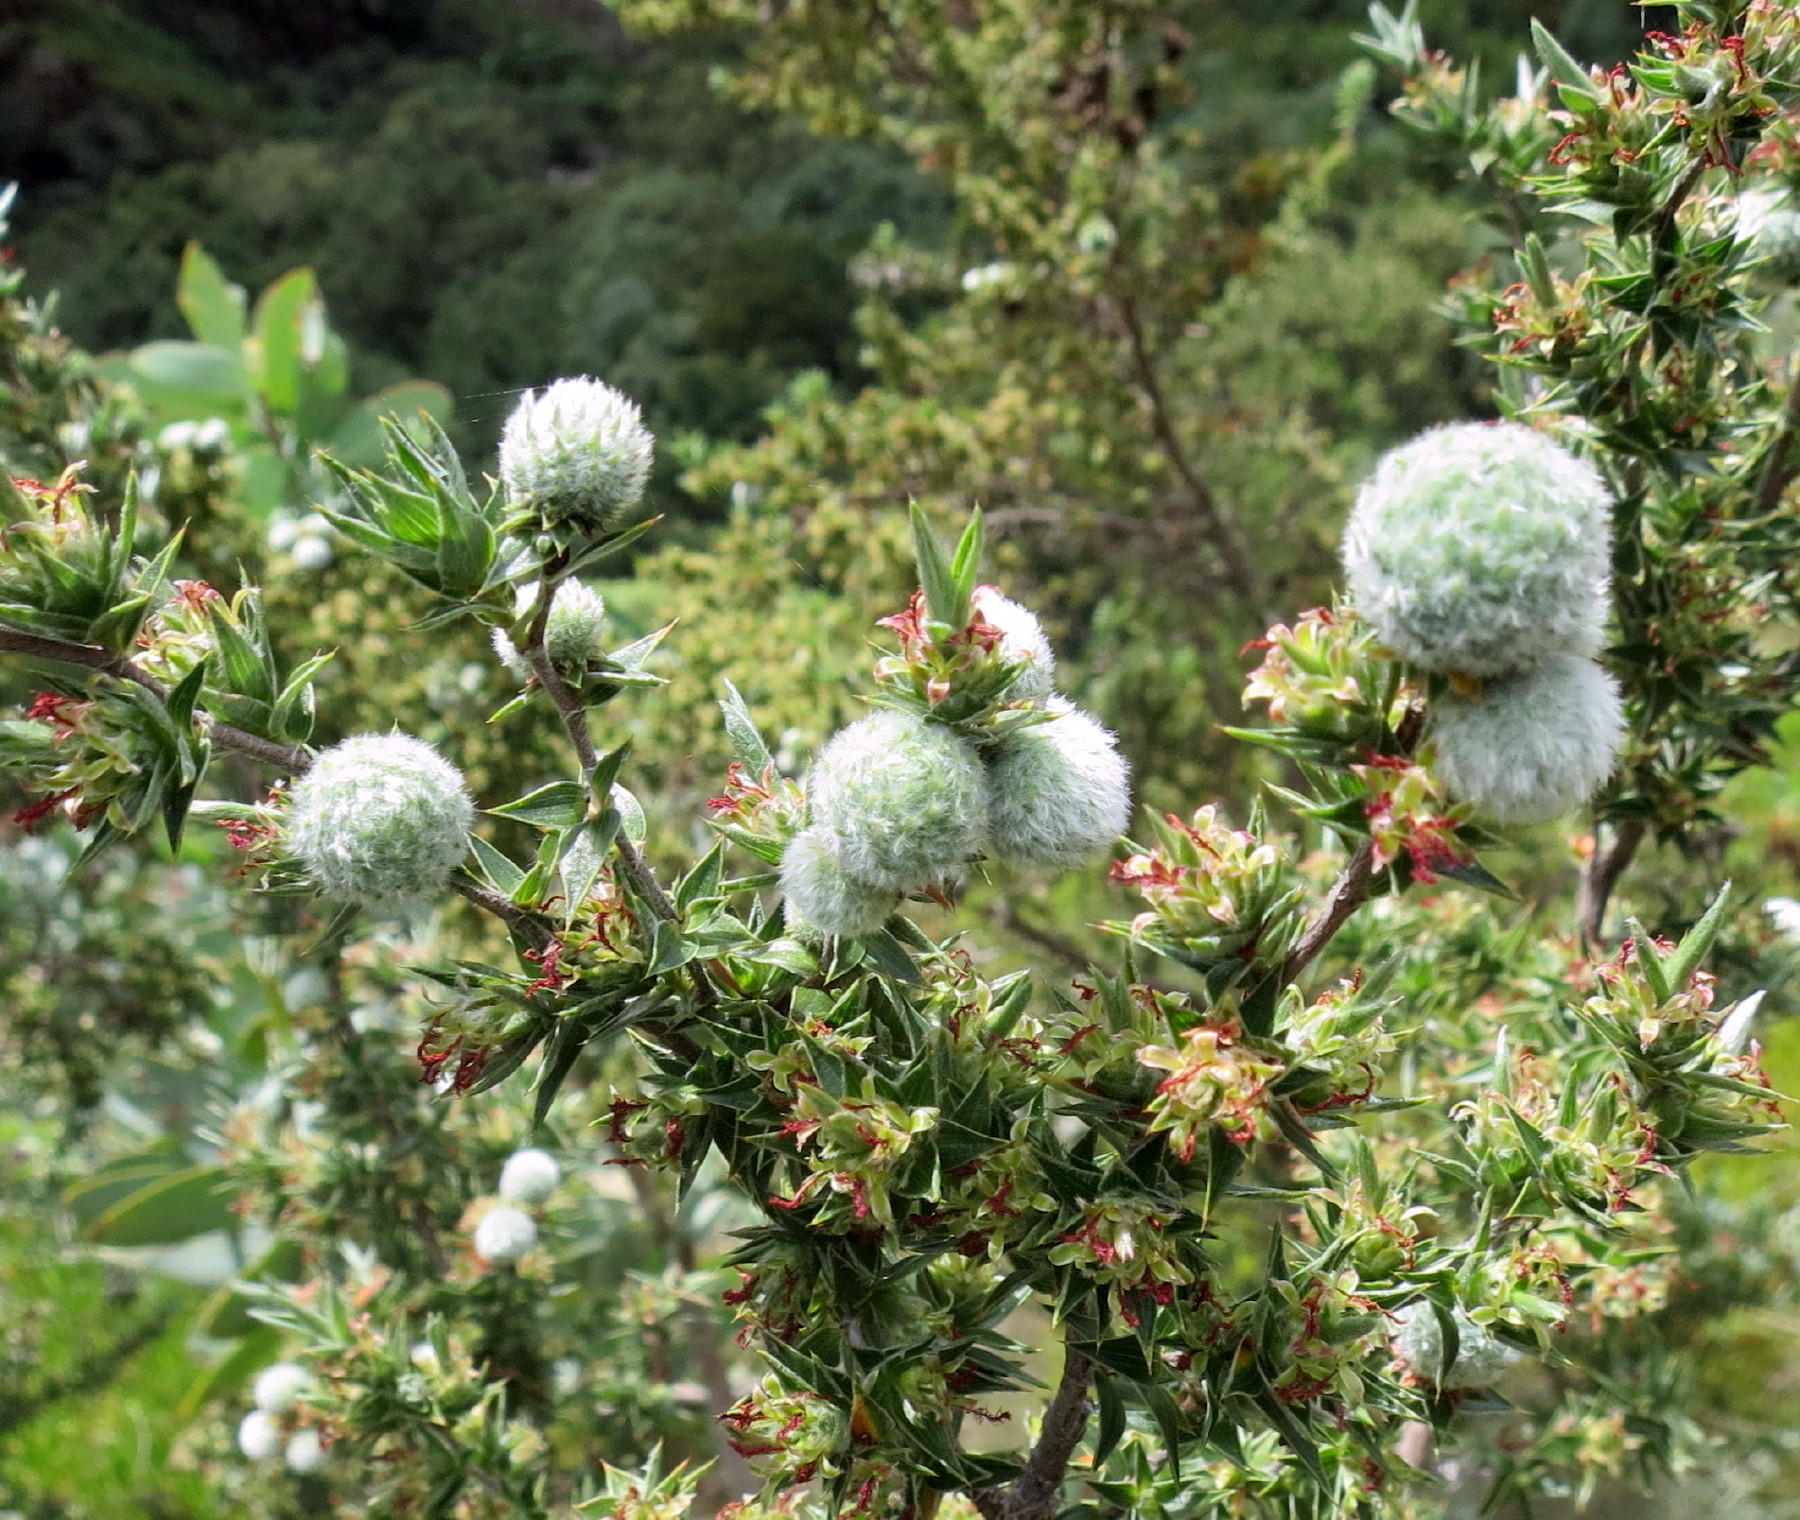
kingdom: Plantae
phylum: Tracheophyta
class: Magnoliopsida
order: Rosales
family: Rosaceae
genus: Cliffortia
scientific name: Cliffortia ruscifolia
